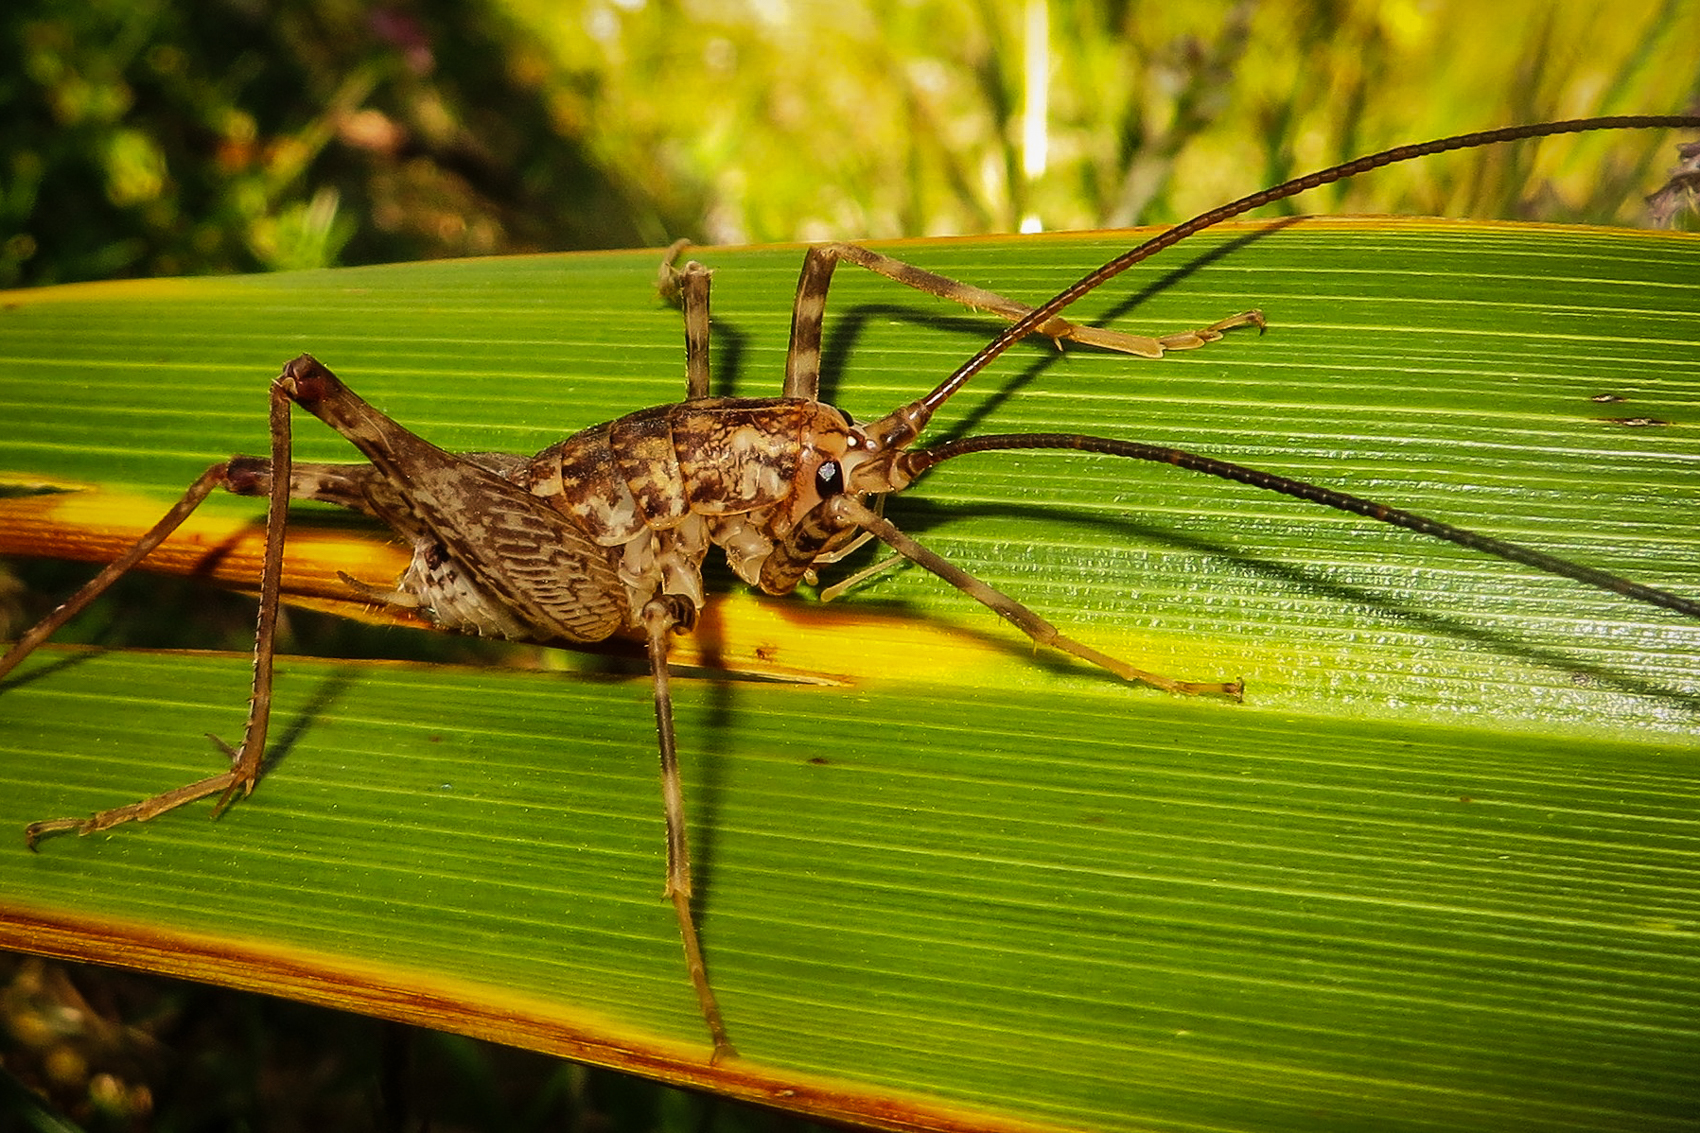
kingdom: Animalia
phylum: Arthropoda
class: Insecta
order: Orthoptera
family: Rhaphidophoridae
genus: Pleioplectron
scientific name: Pleioplectron simplex
